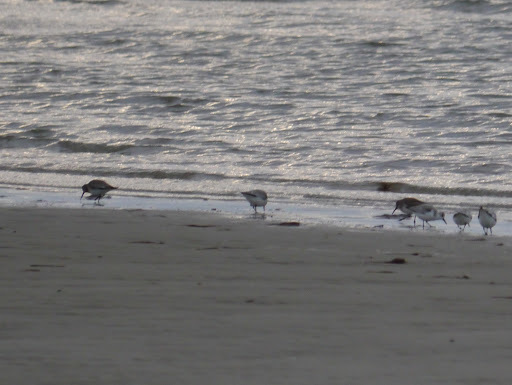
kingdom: Animalia
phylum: Chordata
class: Aves
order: Charadriiformes
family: Scolopacidae
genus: Calidris
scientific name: Calidris alba
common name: Sanderling
